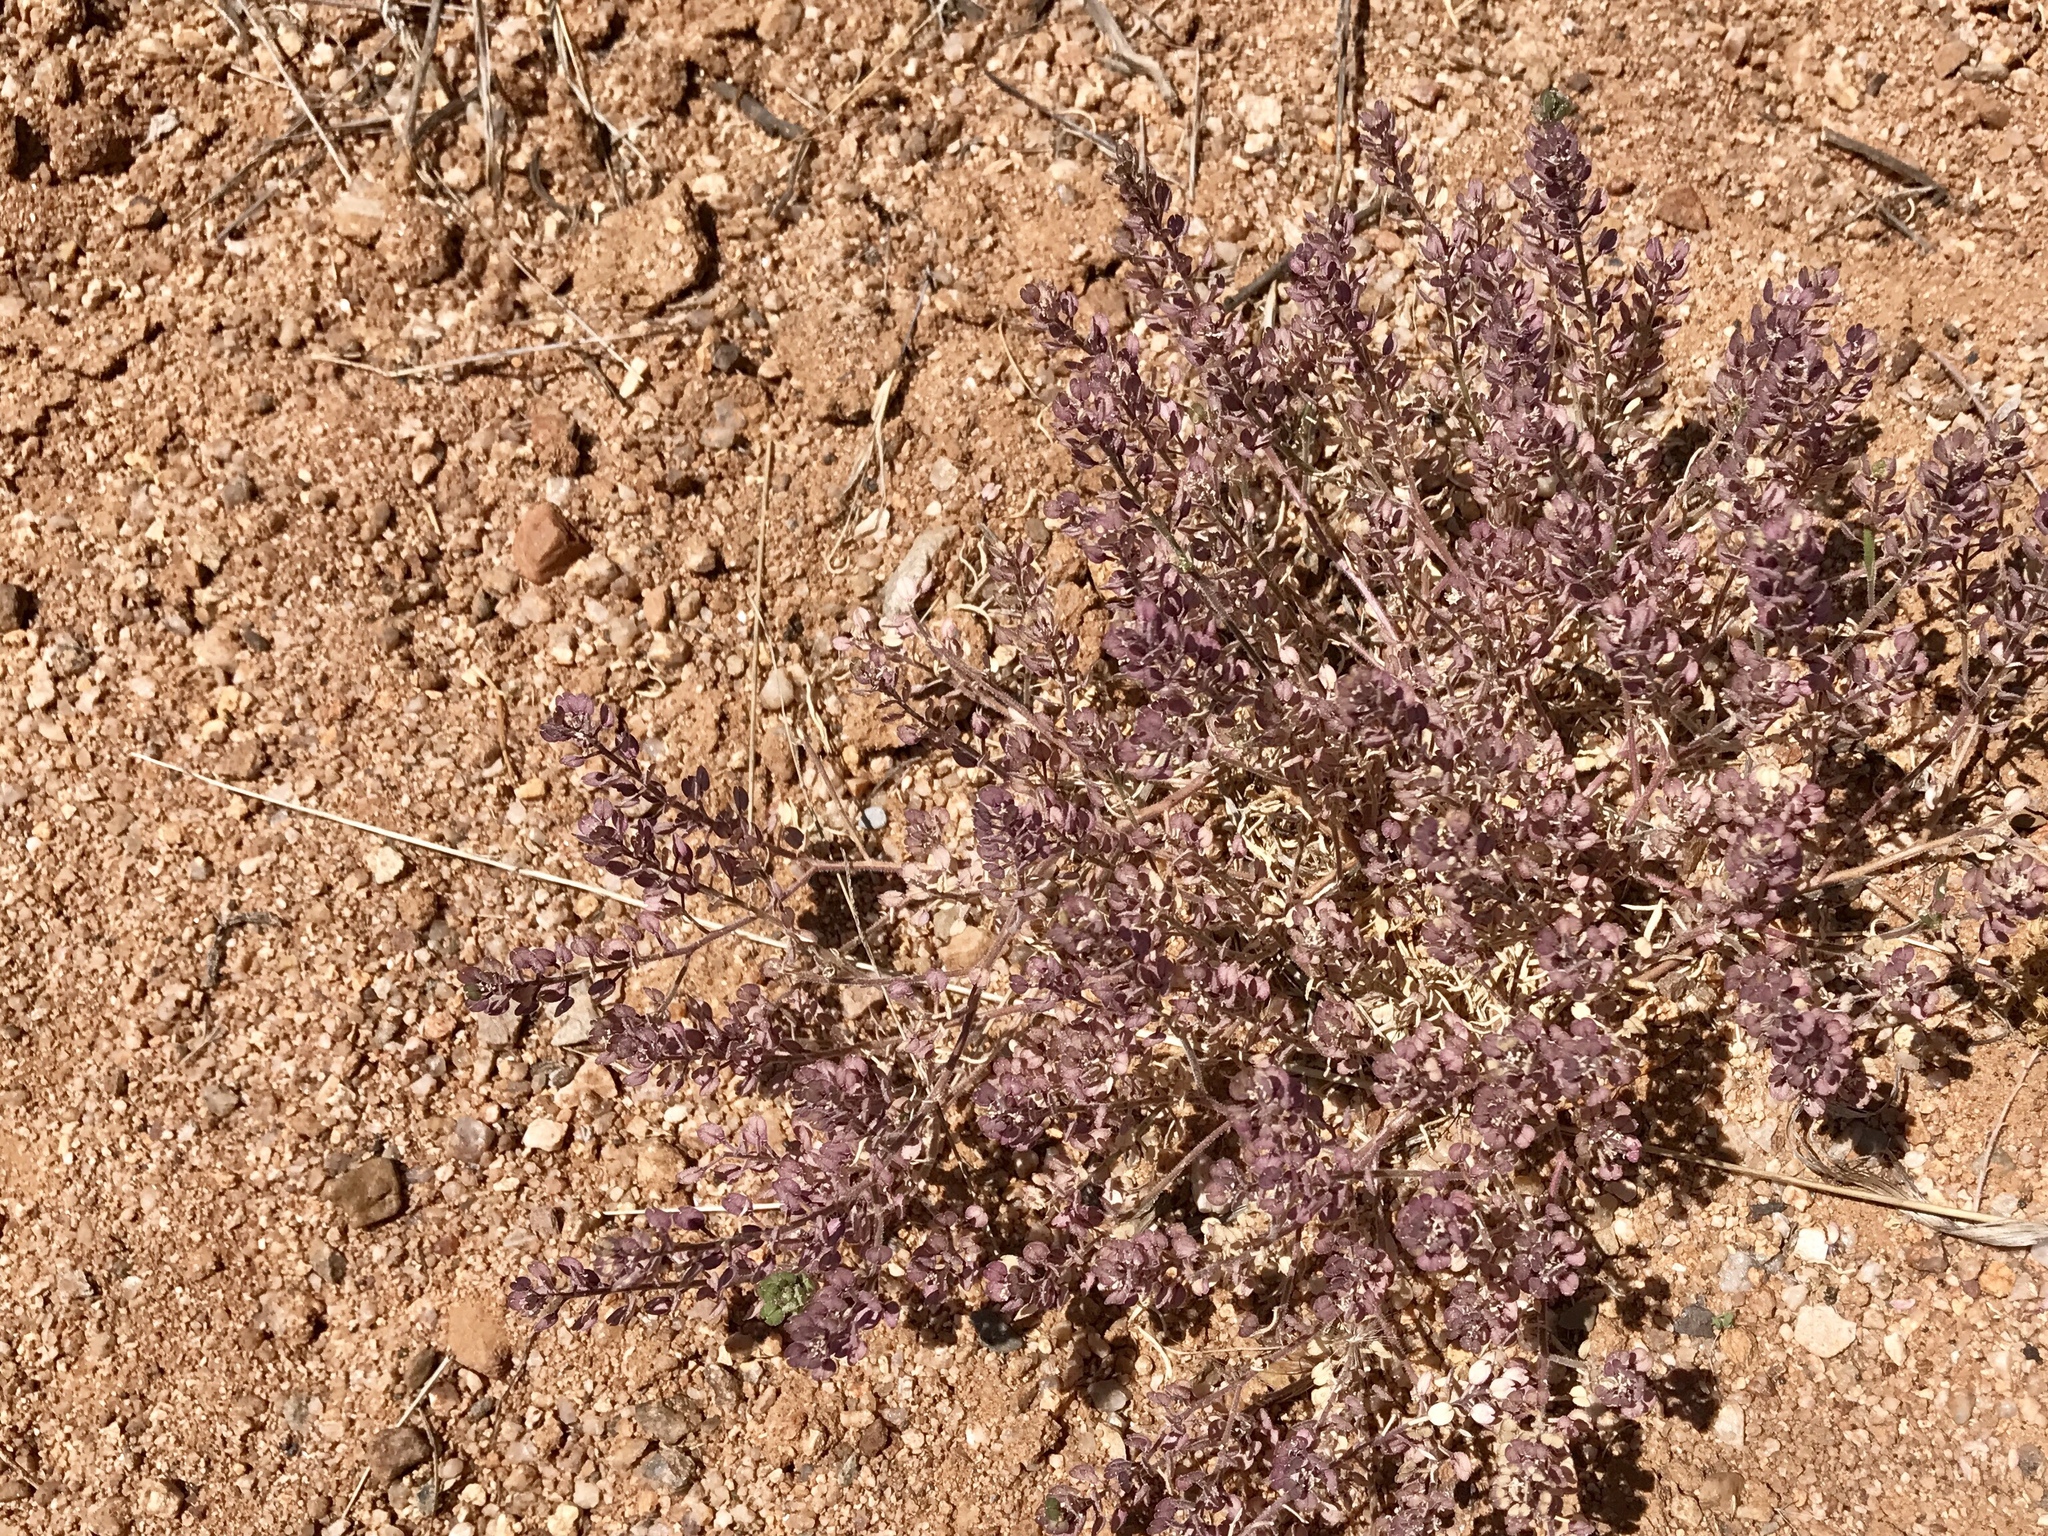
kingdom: Plantae
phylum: Tracheophyta
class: Magnoliopsida
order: Brassicales
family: Brassicaceae
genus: Lepidium
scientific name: Lepidium lasiocarpum
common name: Hairy-pod pepperwort
